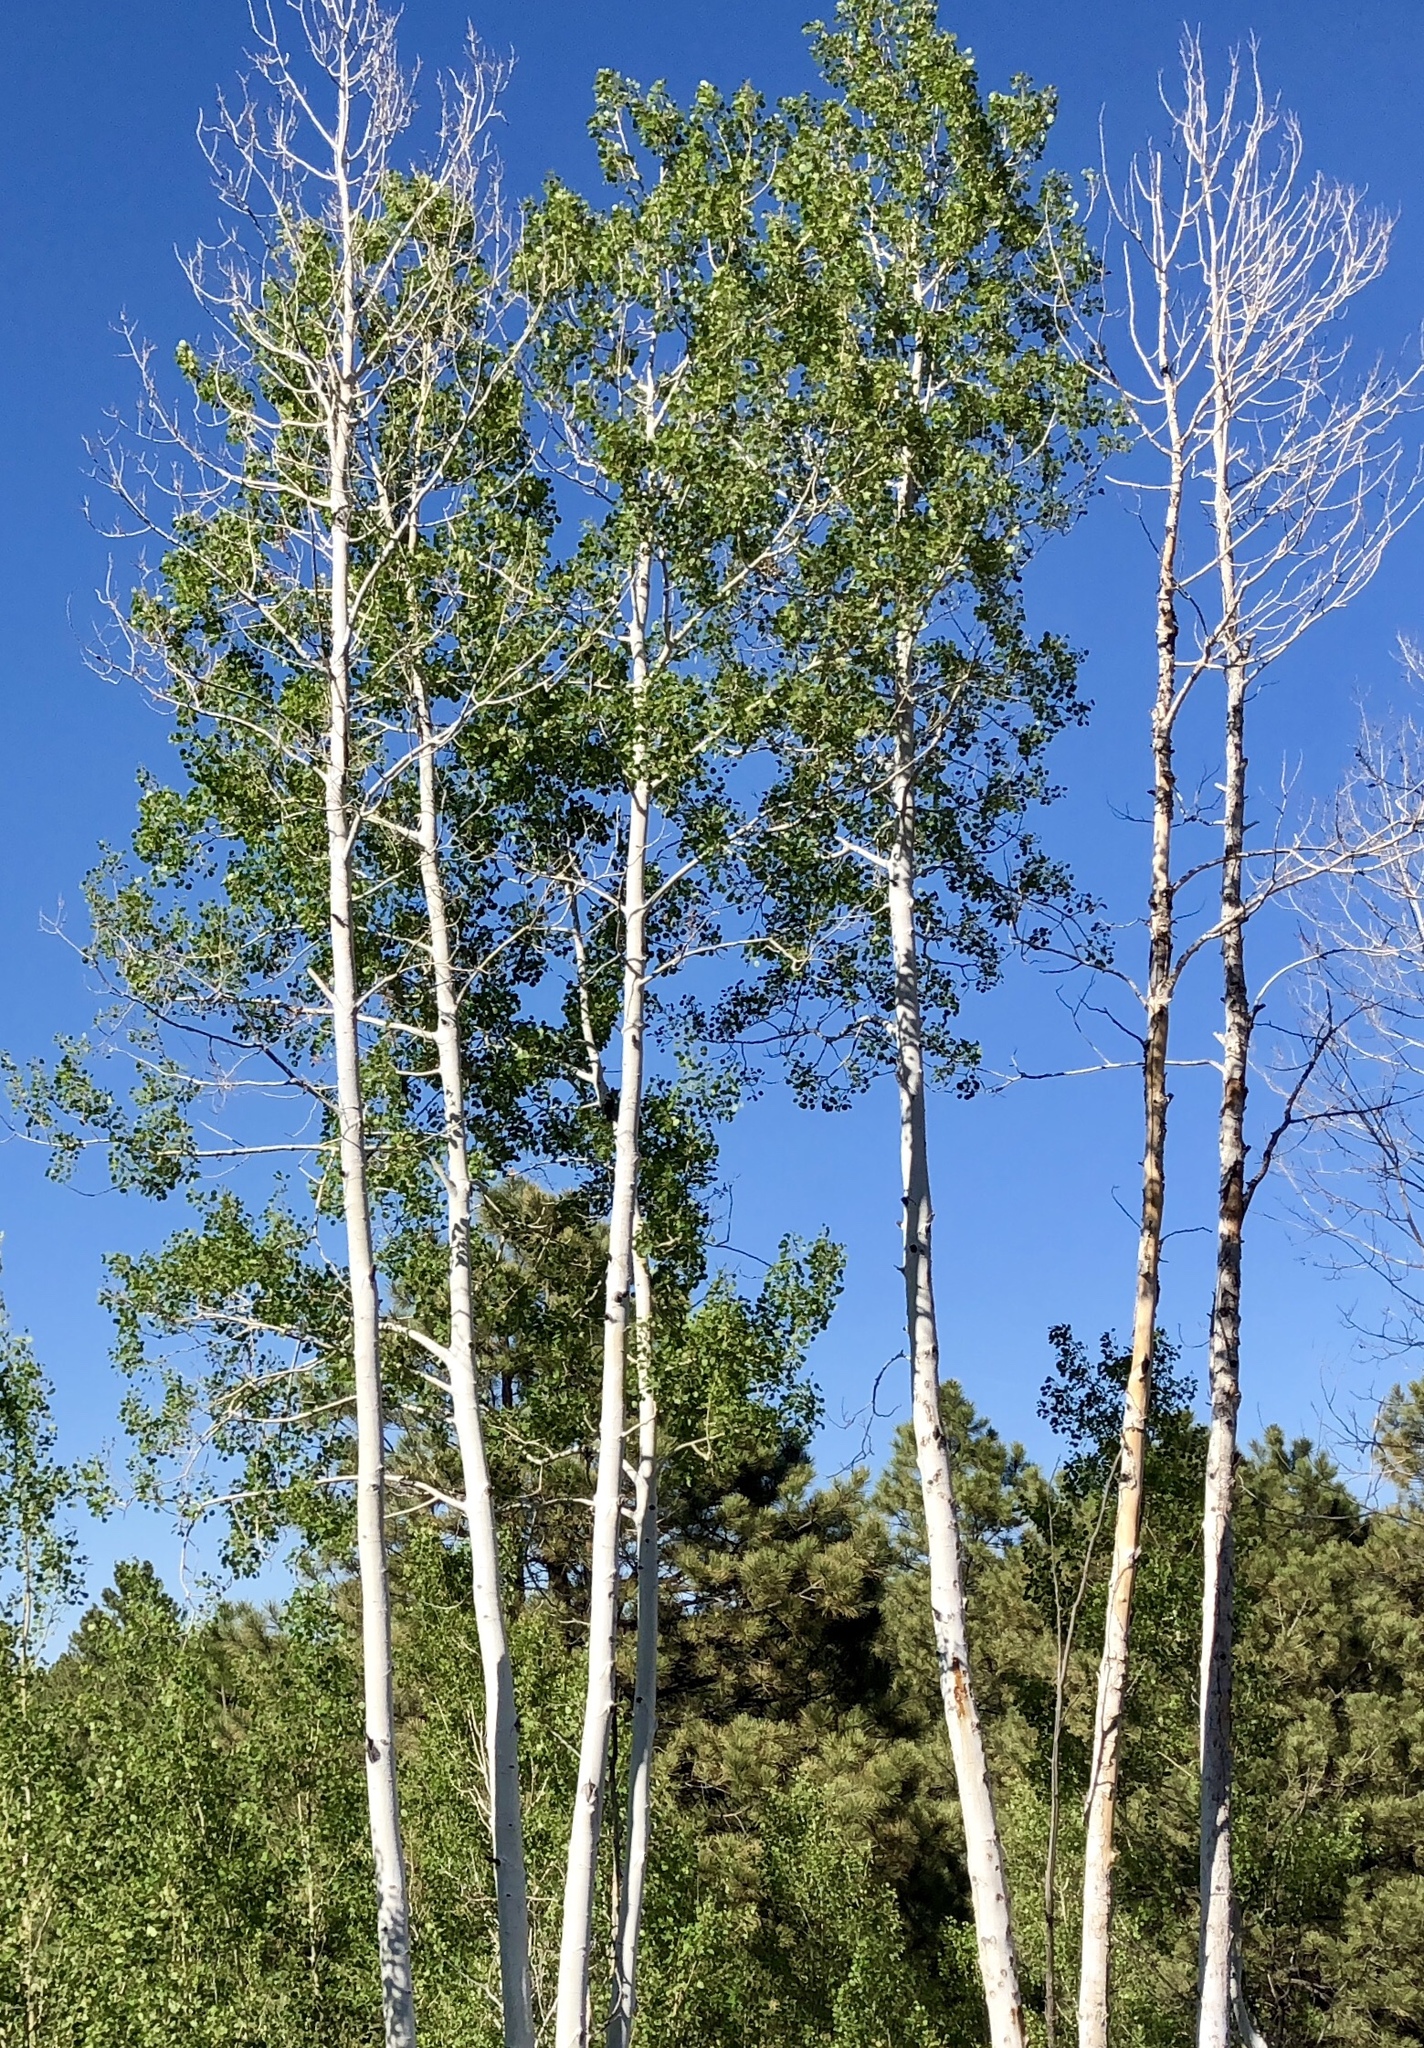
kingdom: Plantae
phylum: Tracheophyta
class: Magnoliopsida
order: Malpighiales
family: Salicaceae
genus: Populus
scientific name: Populus tremuloides
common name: Quaking aspen
